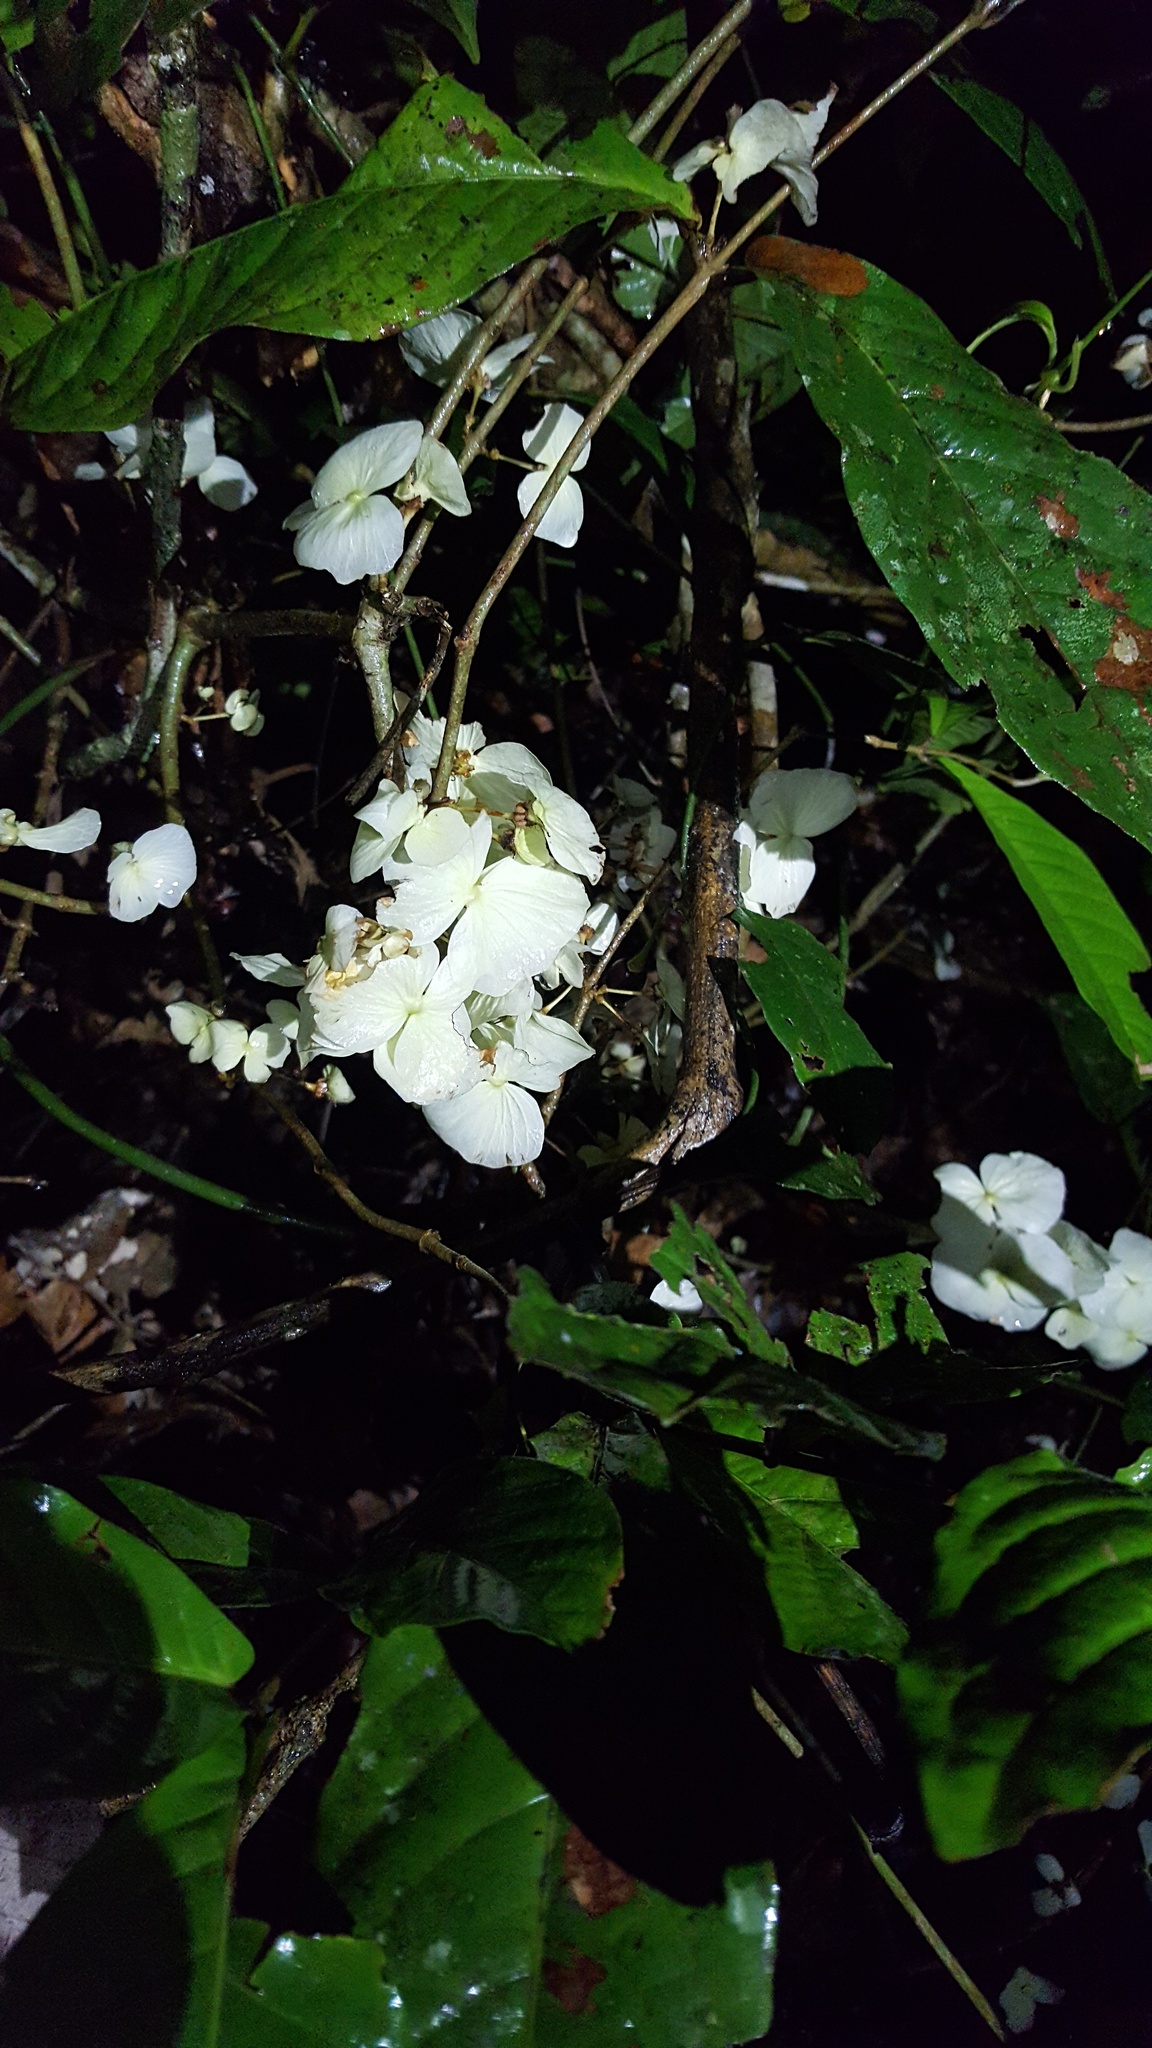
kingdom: Plantae
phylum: Tracheophyta
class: Magnoliopsida
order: Malpighiales
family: Malpighiaceae
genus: Adelphia
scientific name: Adelphia macrophylla
